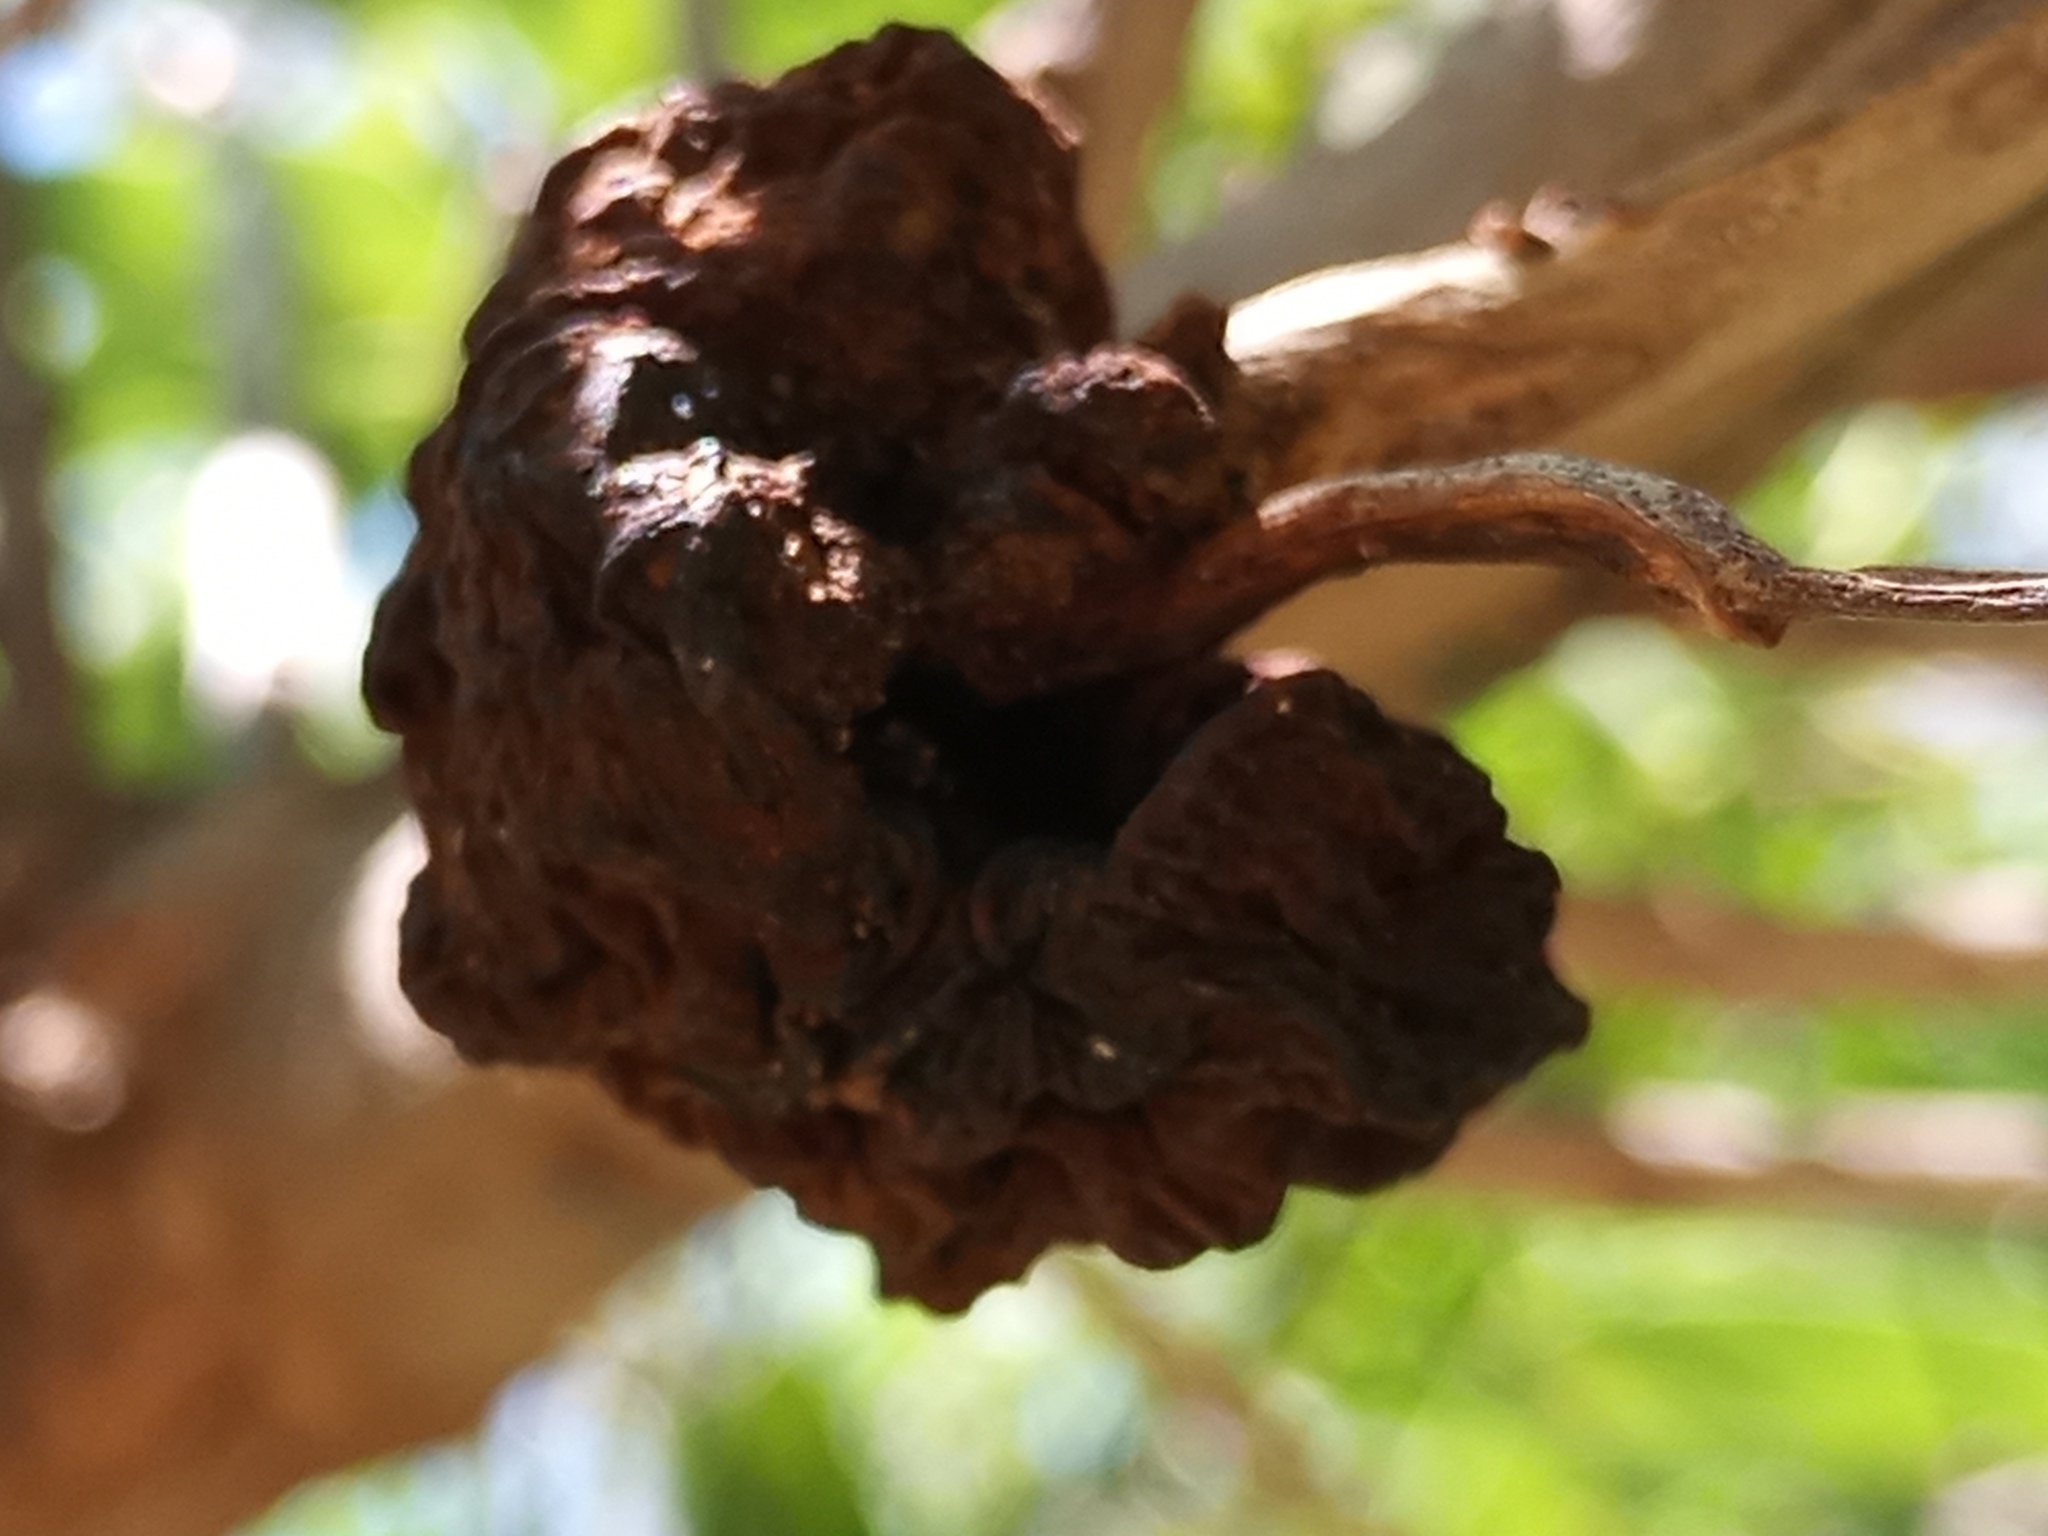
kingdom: Fungi
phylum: Basidiomycota
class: Pucciniomycetes
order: Pucciniales
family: Raveneliaceae
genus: Ravenelia
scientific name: Ravenelia platensis
